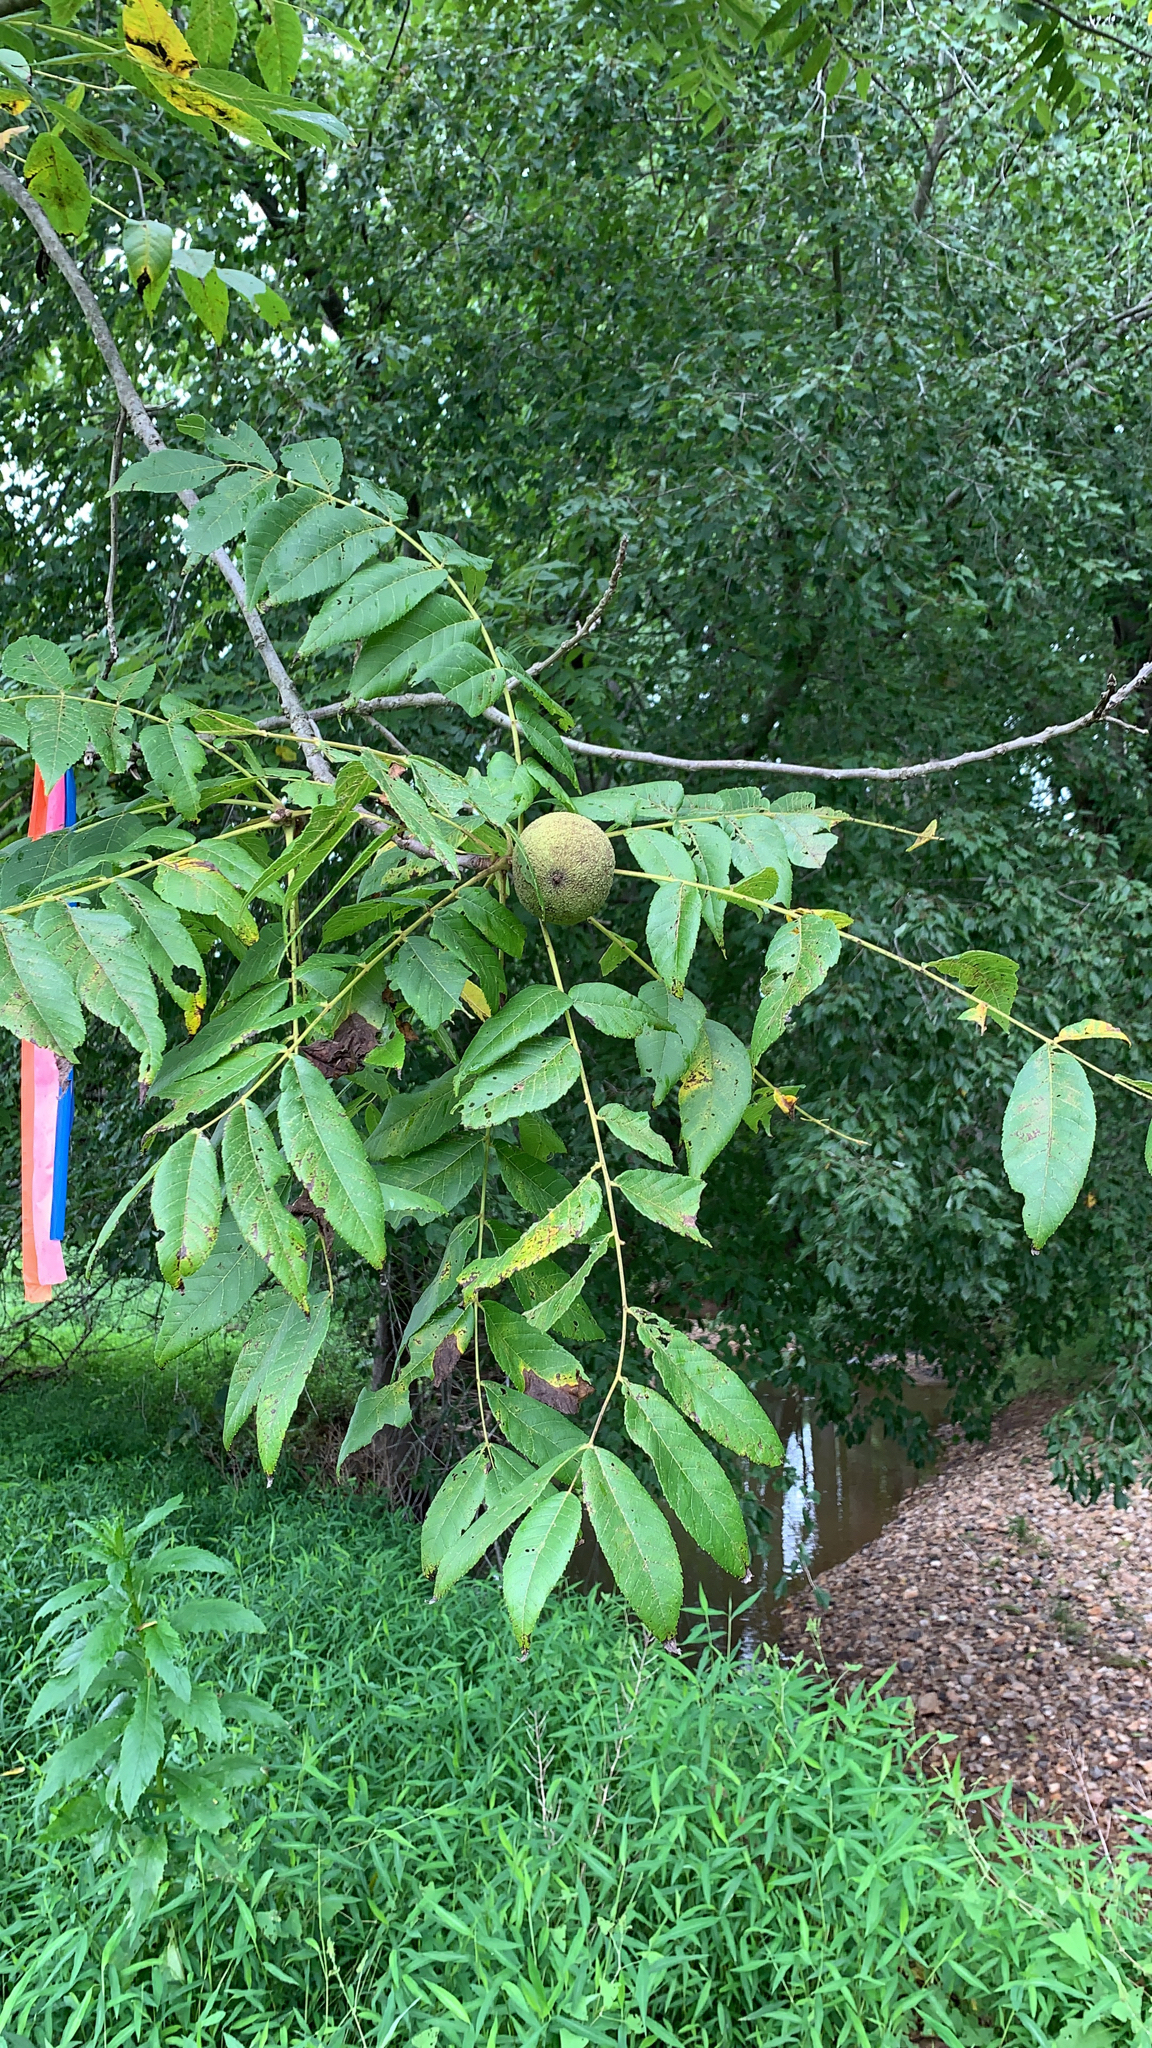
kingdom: Plantae
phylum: Tracheophyta
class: Magnoliopsida
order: Fagales
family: Juglandaceae
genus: Juglans
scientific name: Juglans nigra
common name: Black walnut
